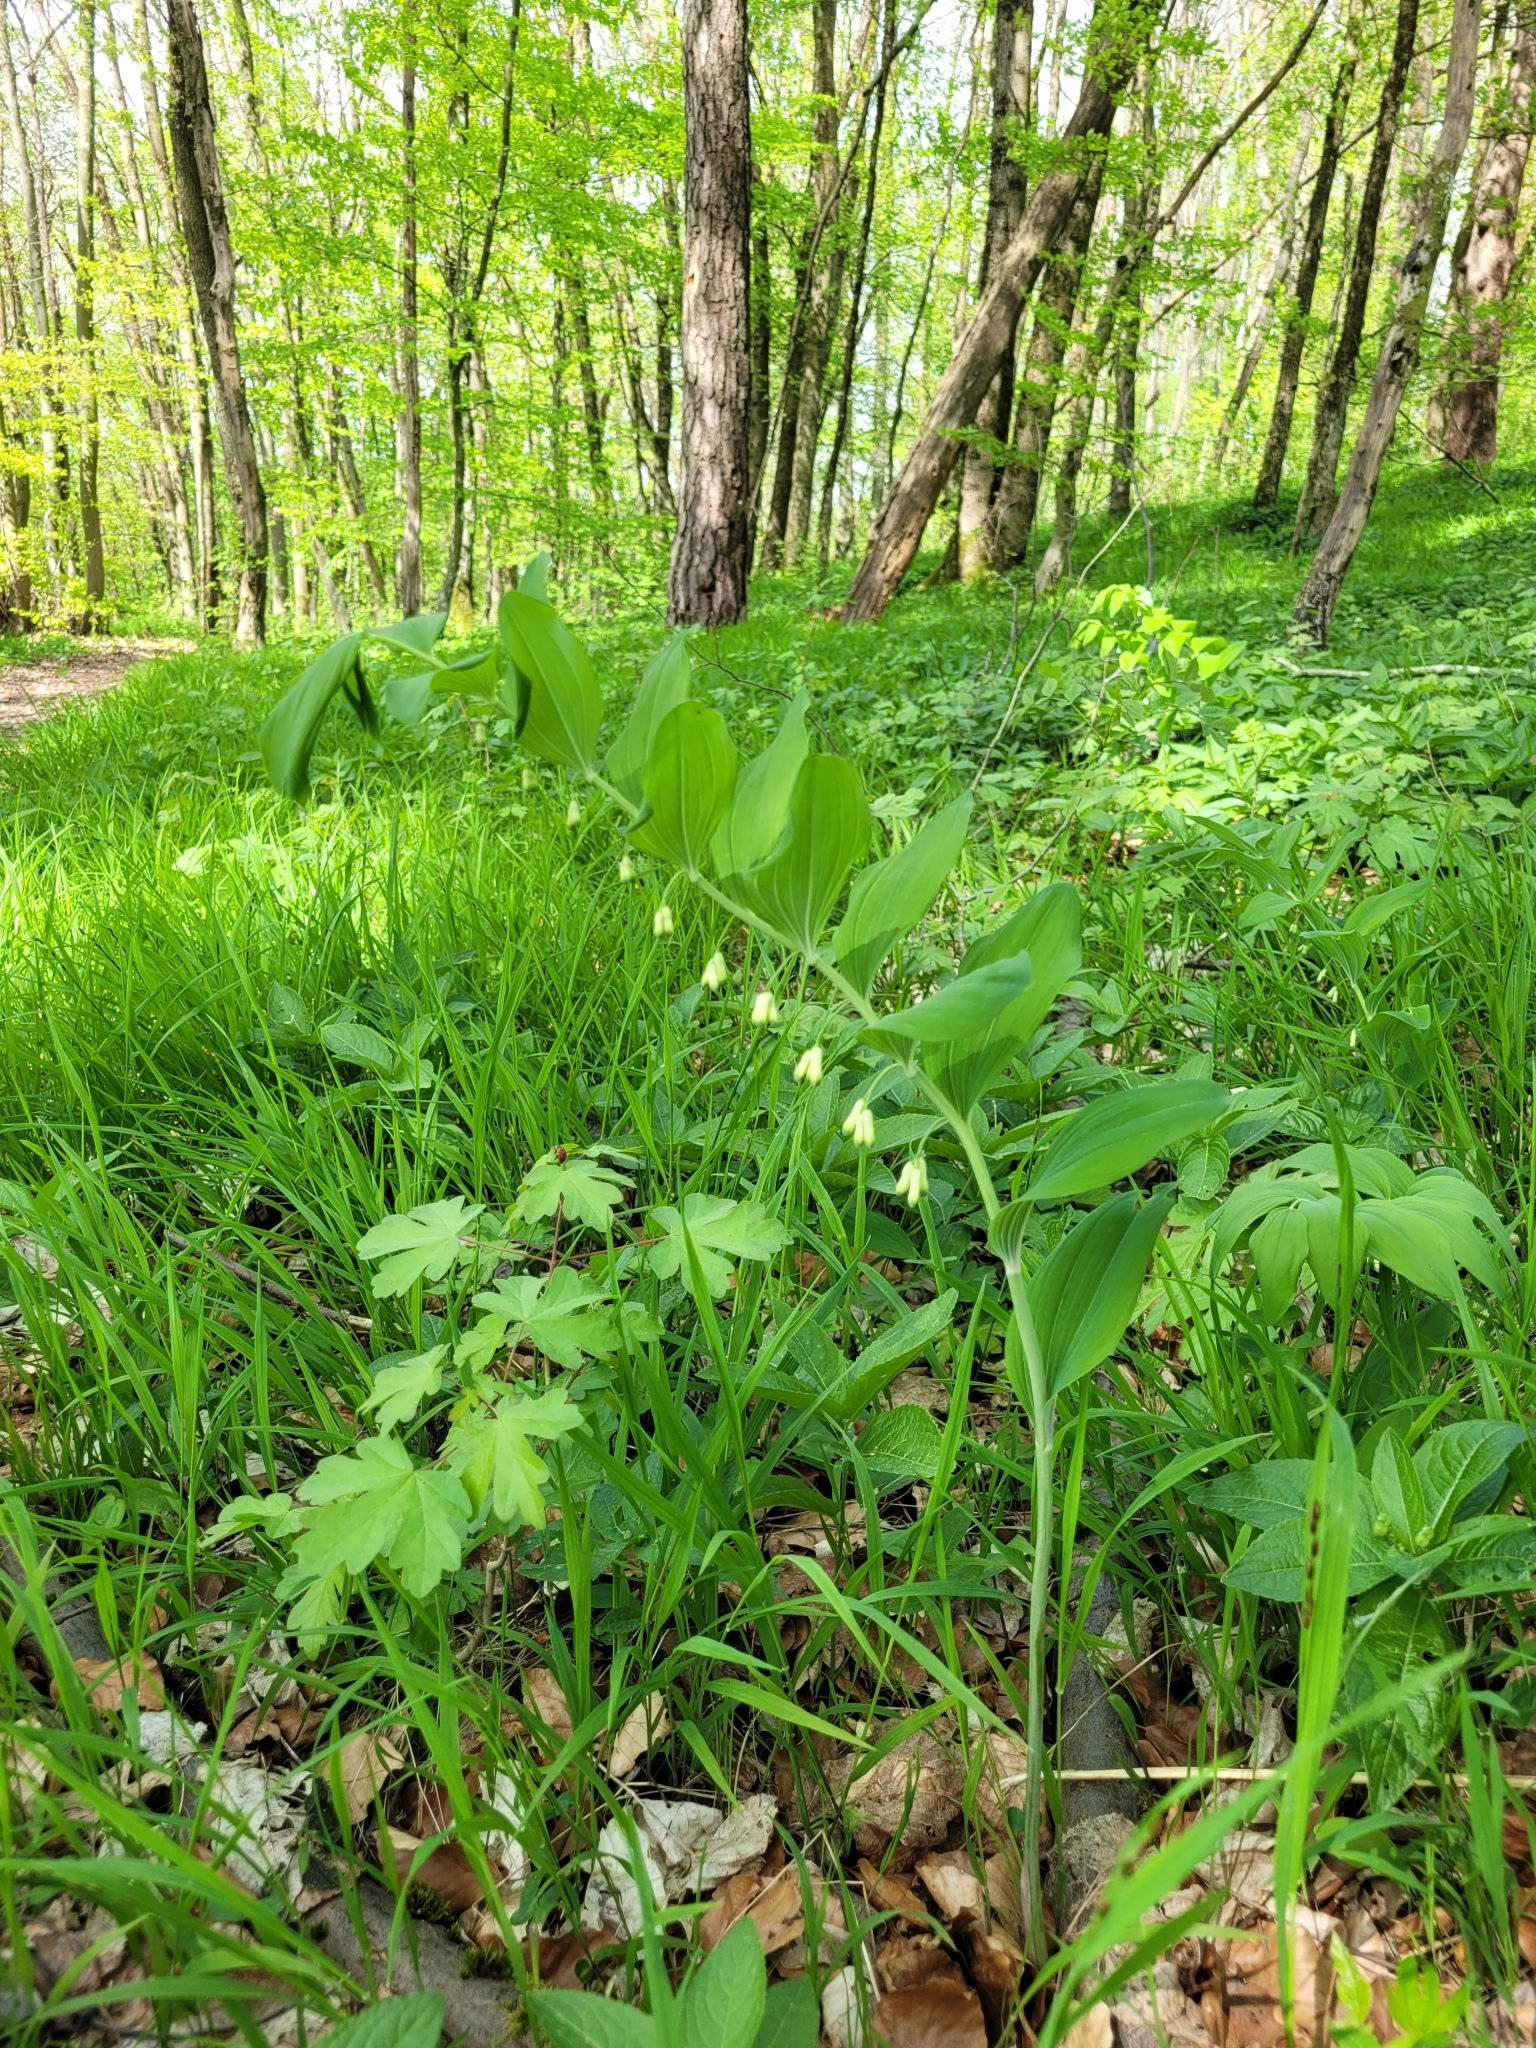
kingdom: Plantae
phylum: Tracheophyta
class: Liliopsida
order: Asparagales
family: Asparagaceae
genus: Polygonatum
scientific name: Polygonatum multiflorum
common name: Solomon's-seal
